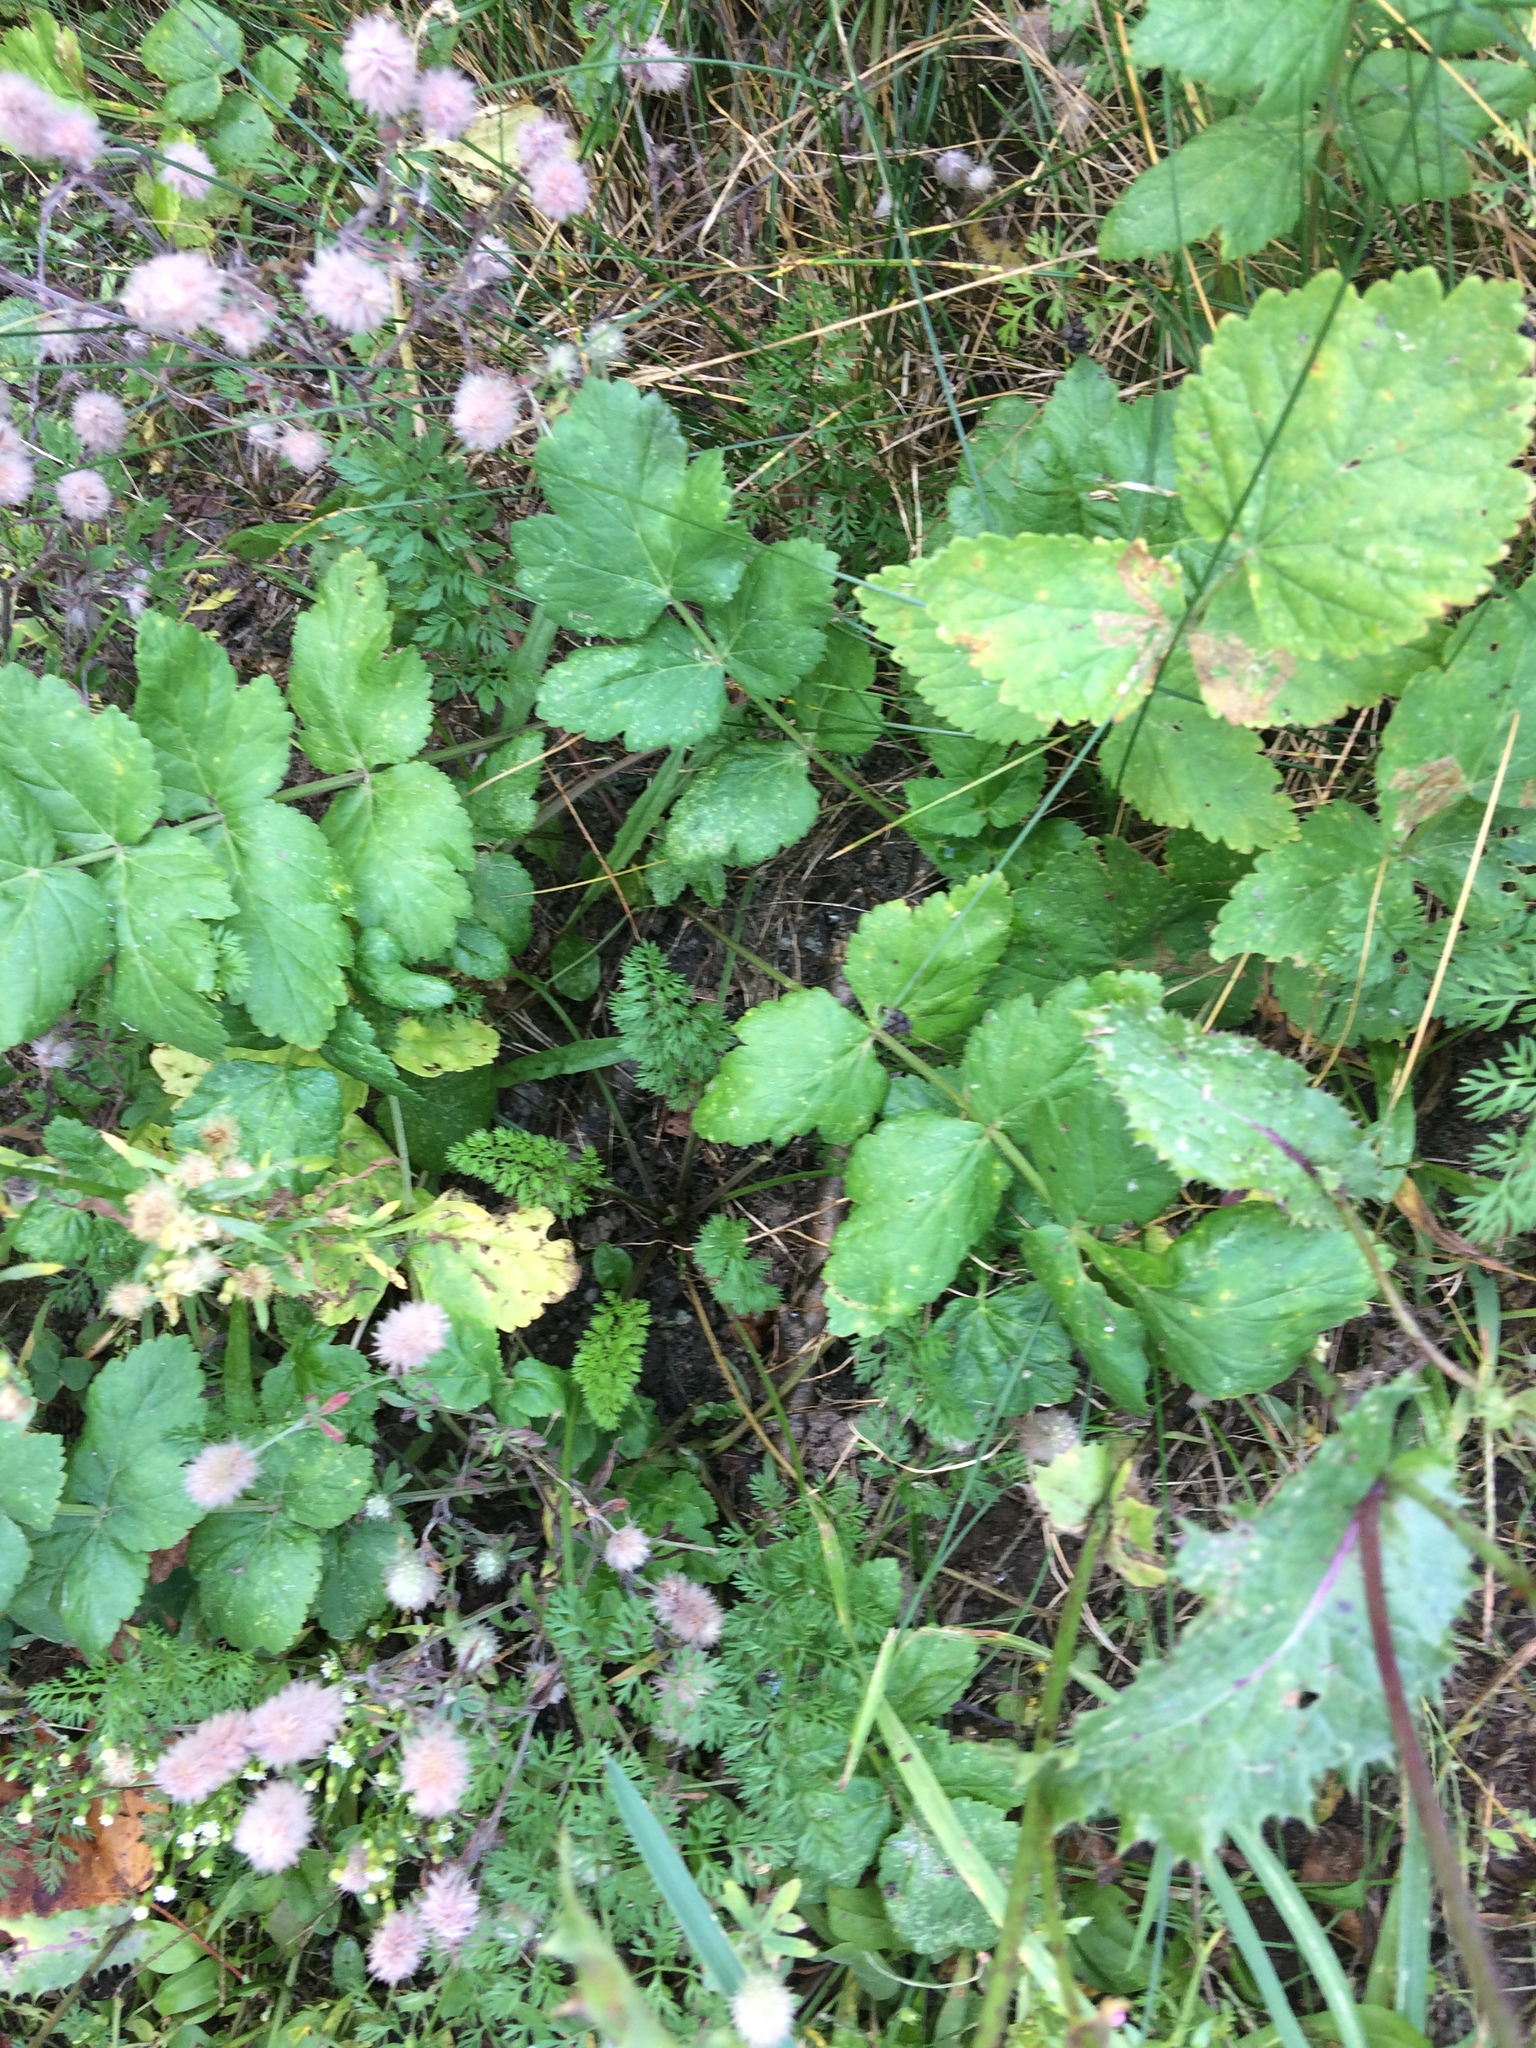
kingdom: Plantae
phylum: Tracheophyta
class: Magnoliopsida
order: Apiales
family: Apiaceae
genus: Pastinaca
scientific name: Pastinaca sativa
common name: Wild parsnip
